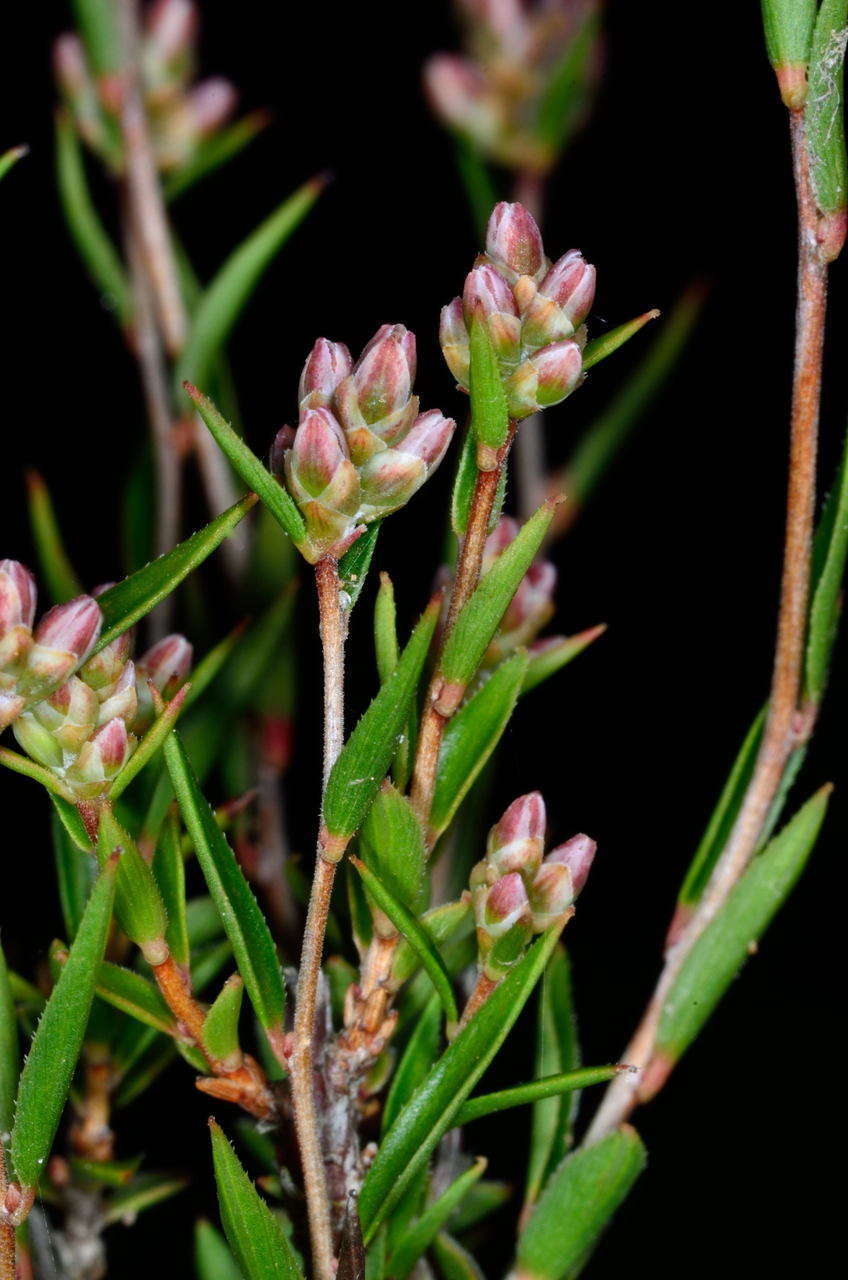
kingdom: Plantae
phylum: Tracheophyta
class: Magnoliopsida
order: Ericales
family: Ericaceae
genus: Leucopogon
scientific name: Leucopogon virgatus
